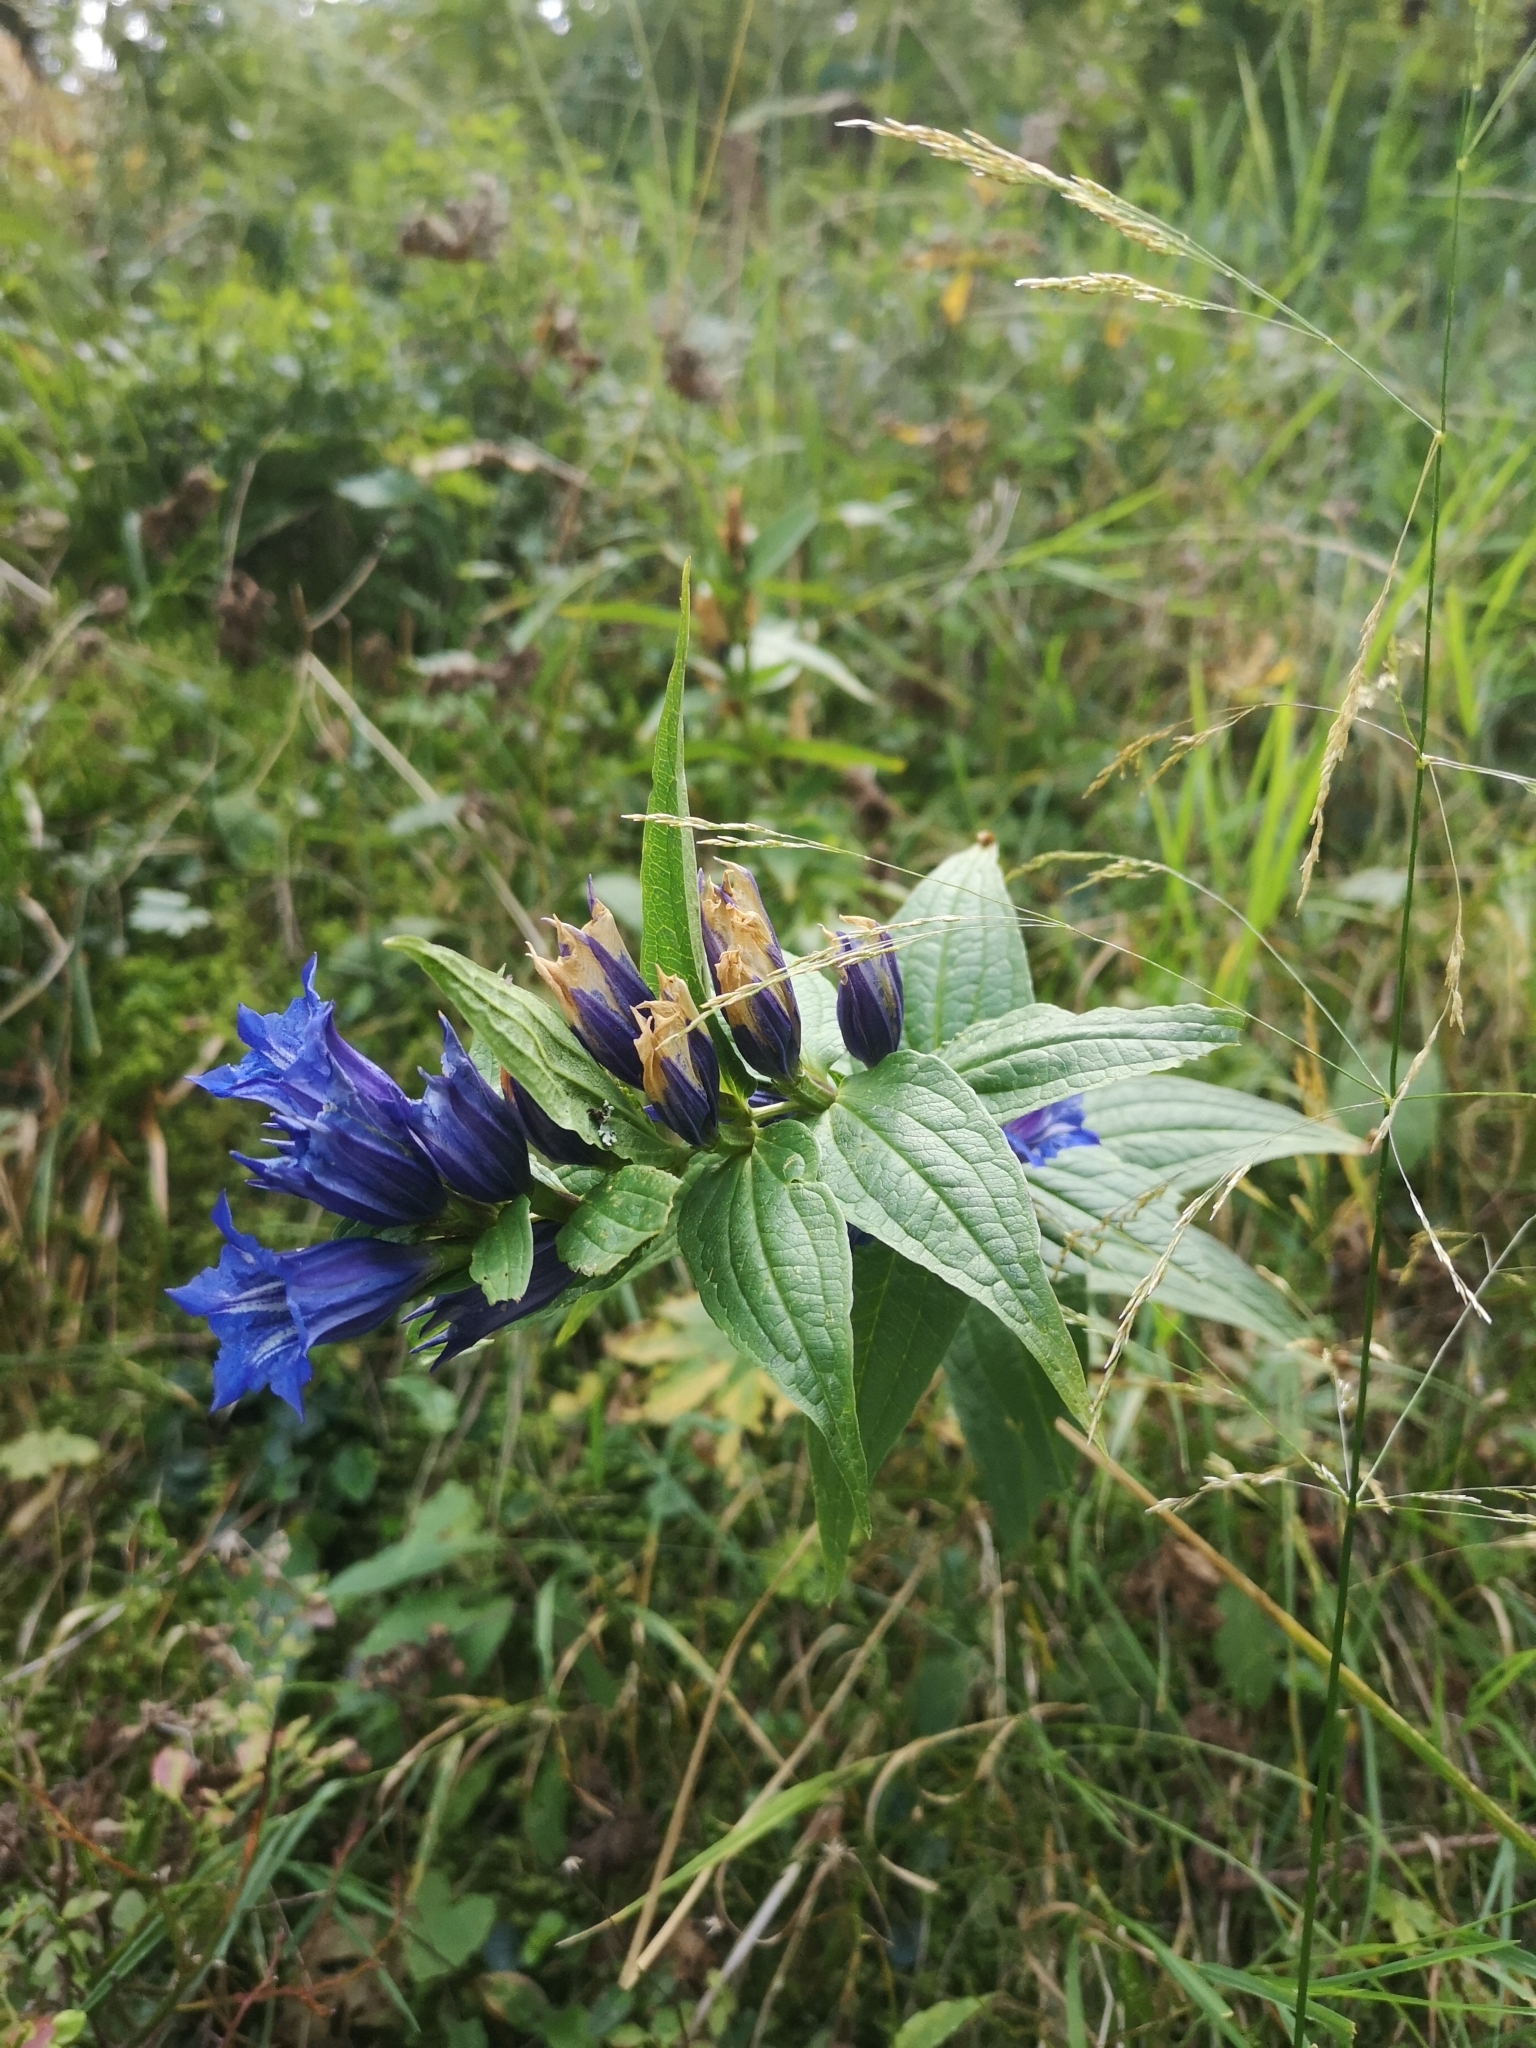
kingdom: Plantae
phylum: Tracheophyta
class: Magnoliopsida
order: Gentianales
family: Gentianaceae
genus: Gentiana
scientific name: Gentiana asclepiadea
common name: Willow gentian
